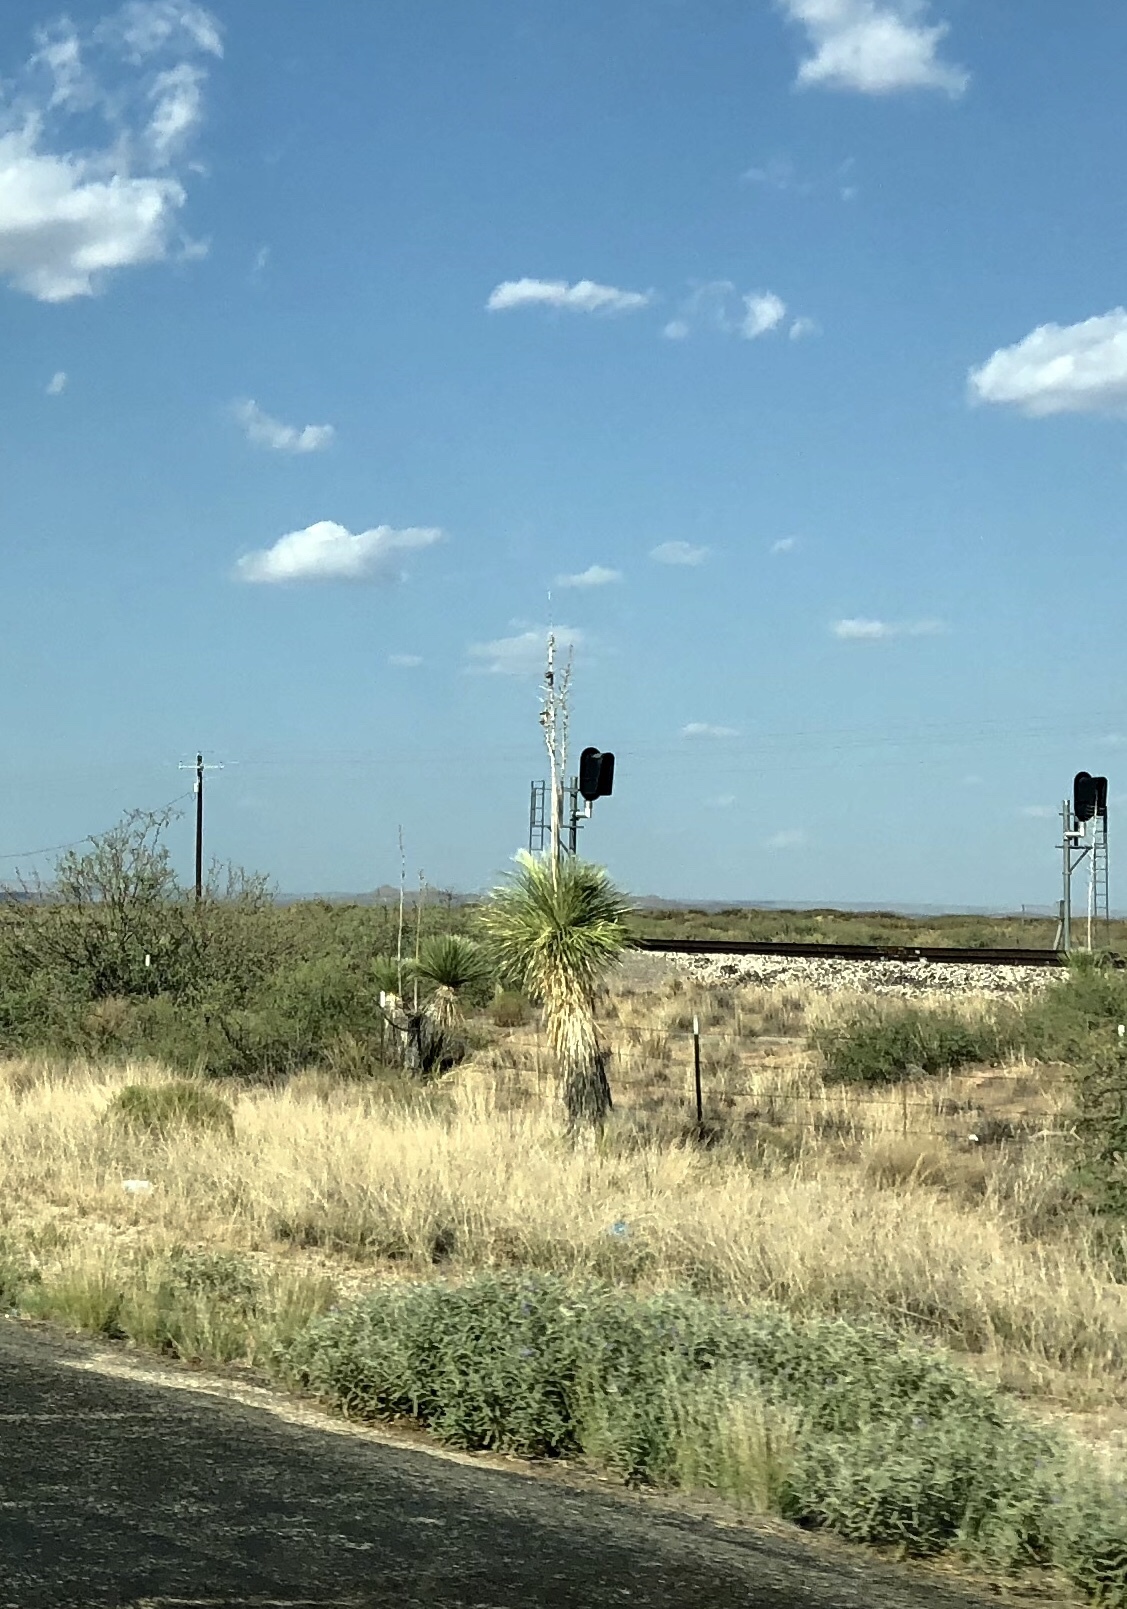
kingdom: Plantae
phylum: Tracheophyta
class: Liliopsida
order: Asparagales
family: Asparagaceae
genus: Yucca
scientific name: Yucca elata
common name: Palmella
